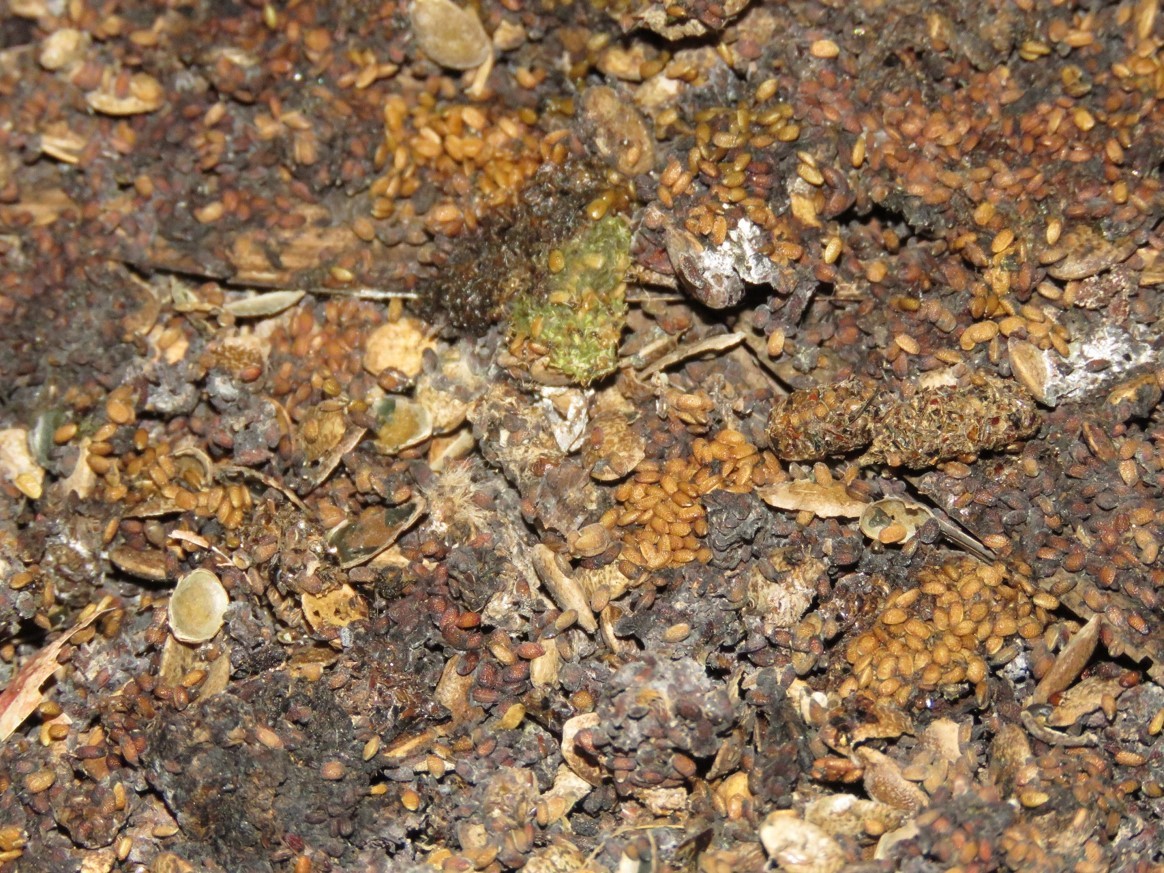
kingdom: Animalia
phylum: Chordata
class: Mammalia
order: Chiroptera
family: Phyllostomidae
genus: Phyllostomus
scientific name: Phyllostomus hastatus
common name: Greater spear-nosed bat
